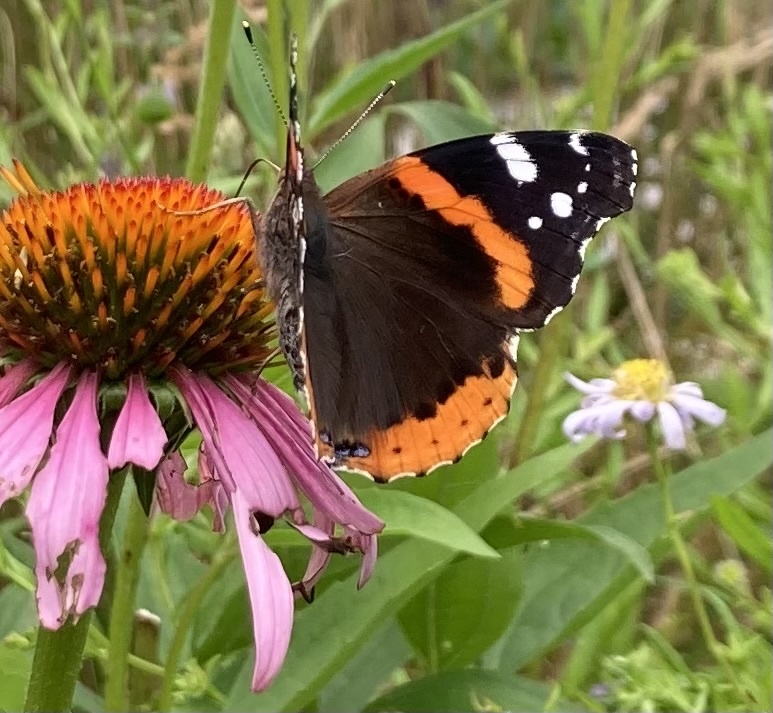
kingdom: Animalia
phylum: Arthropoda
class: Insecta
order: Lepidoptera
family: Nymphalidae
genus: Vanessa
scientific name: Vanessa atalanta
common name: Red admiral
